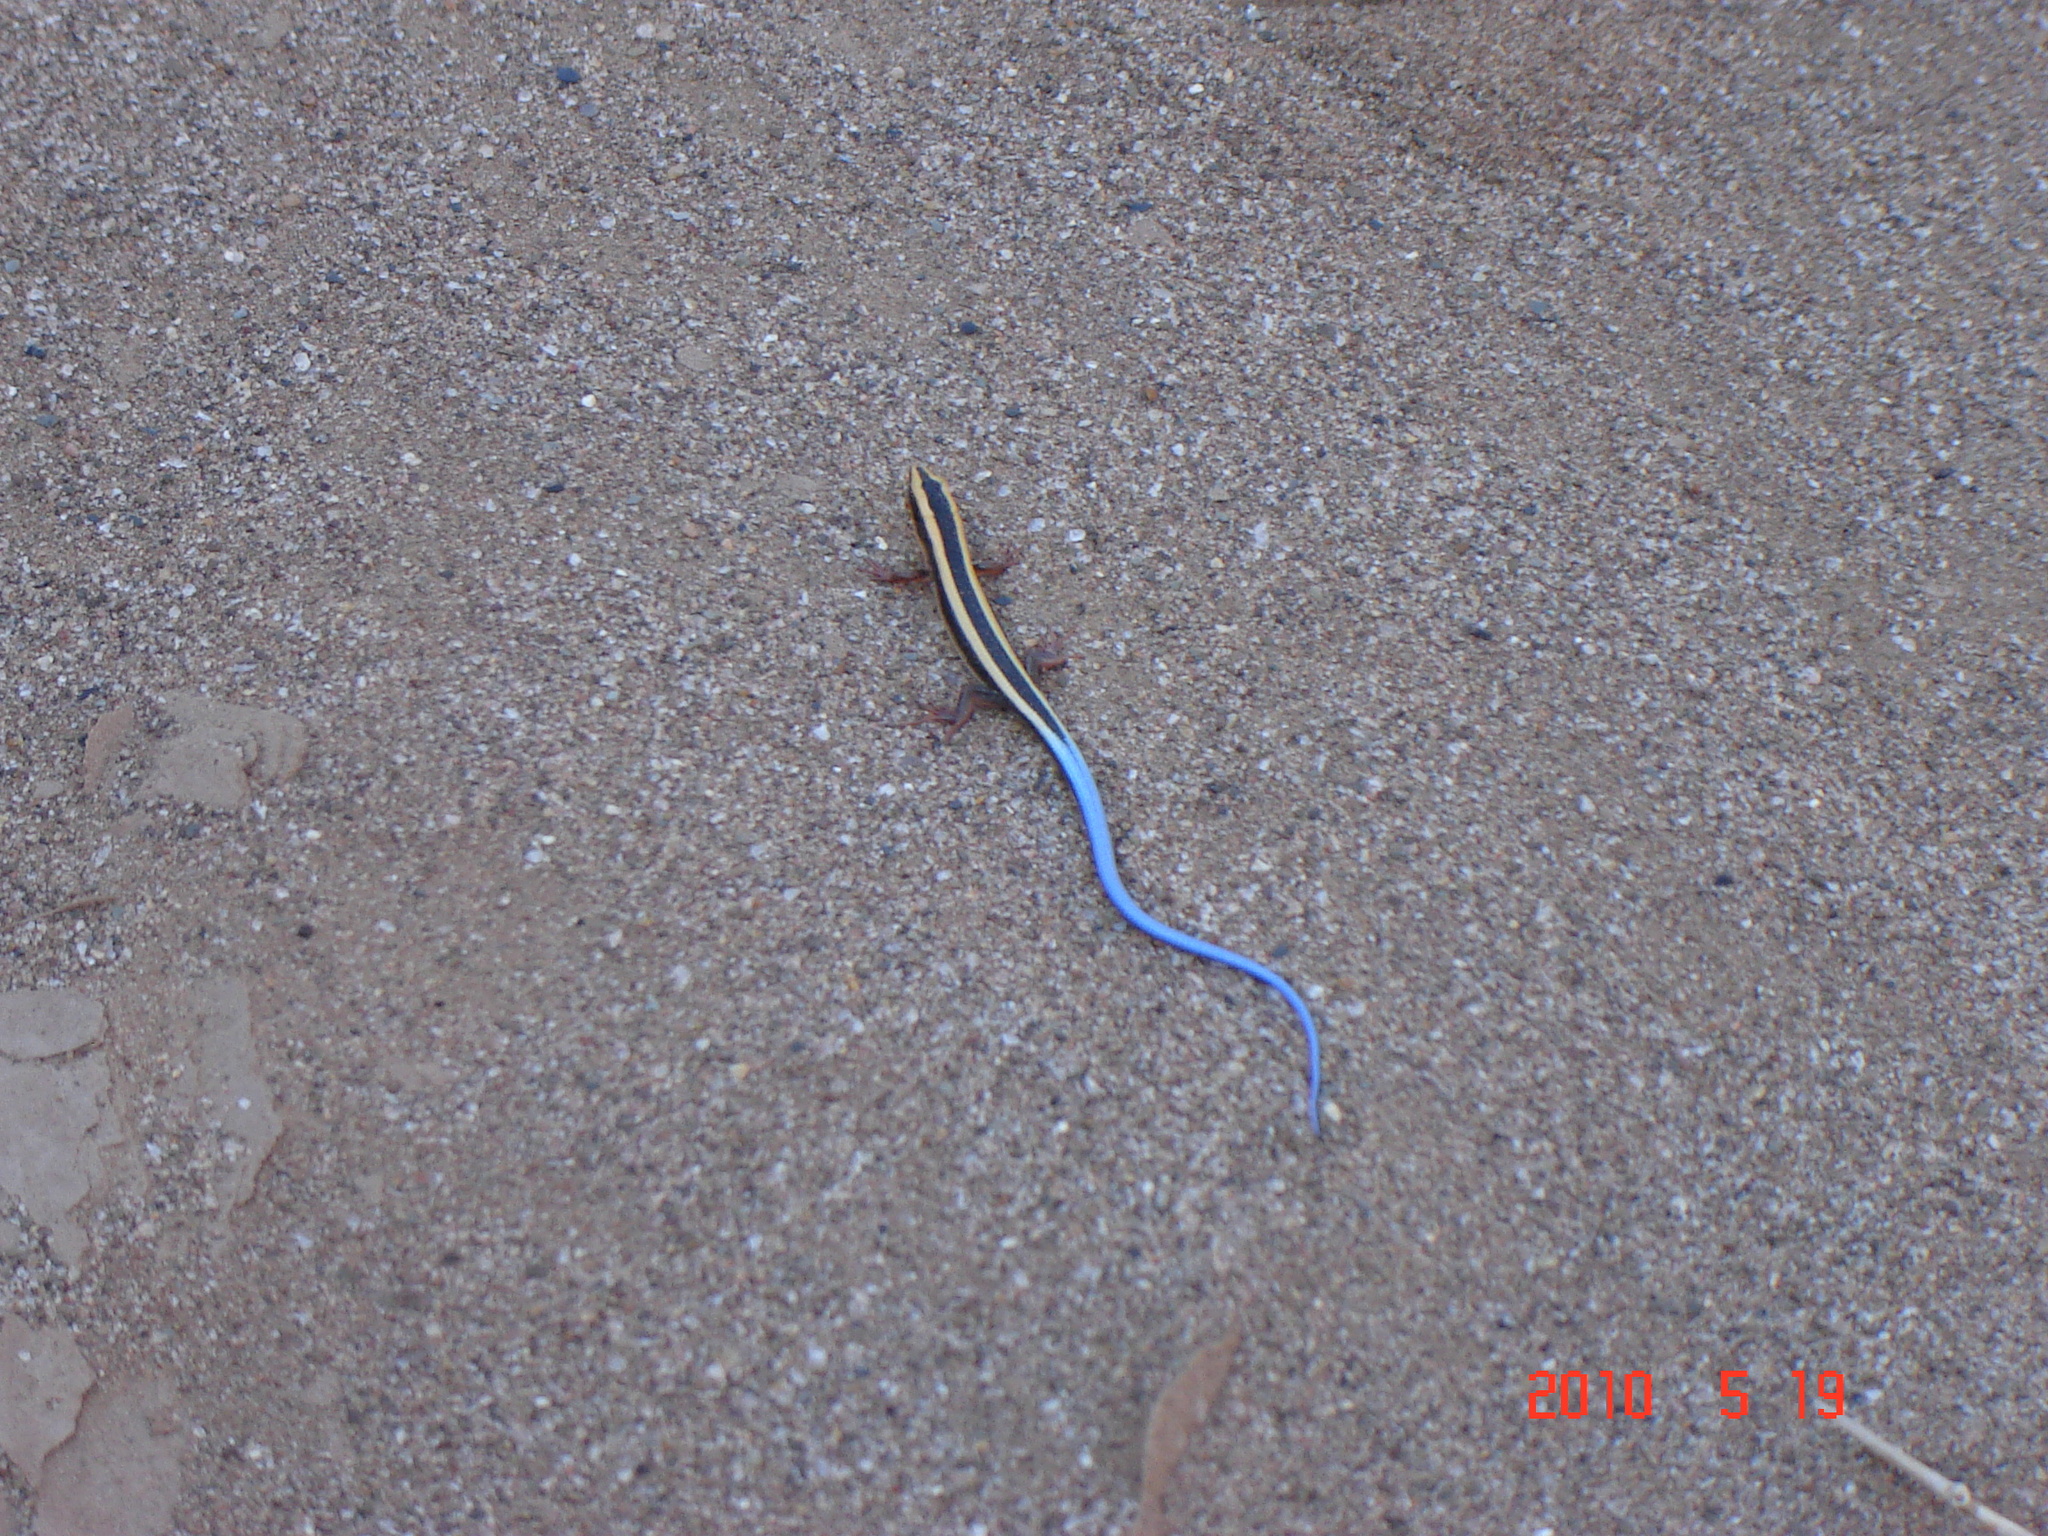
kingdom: Animalia
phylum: Chordata
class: Squamata
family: Gerrhosauridae
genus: Cordylosaurus
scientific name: Cordylosaurus subtessellatus
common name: Dwarf plated lizard
